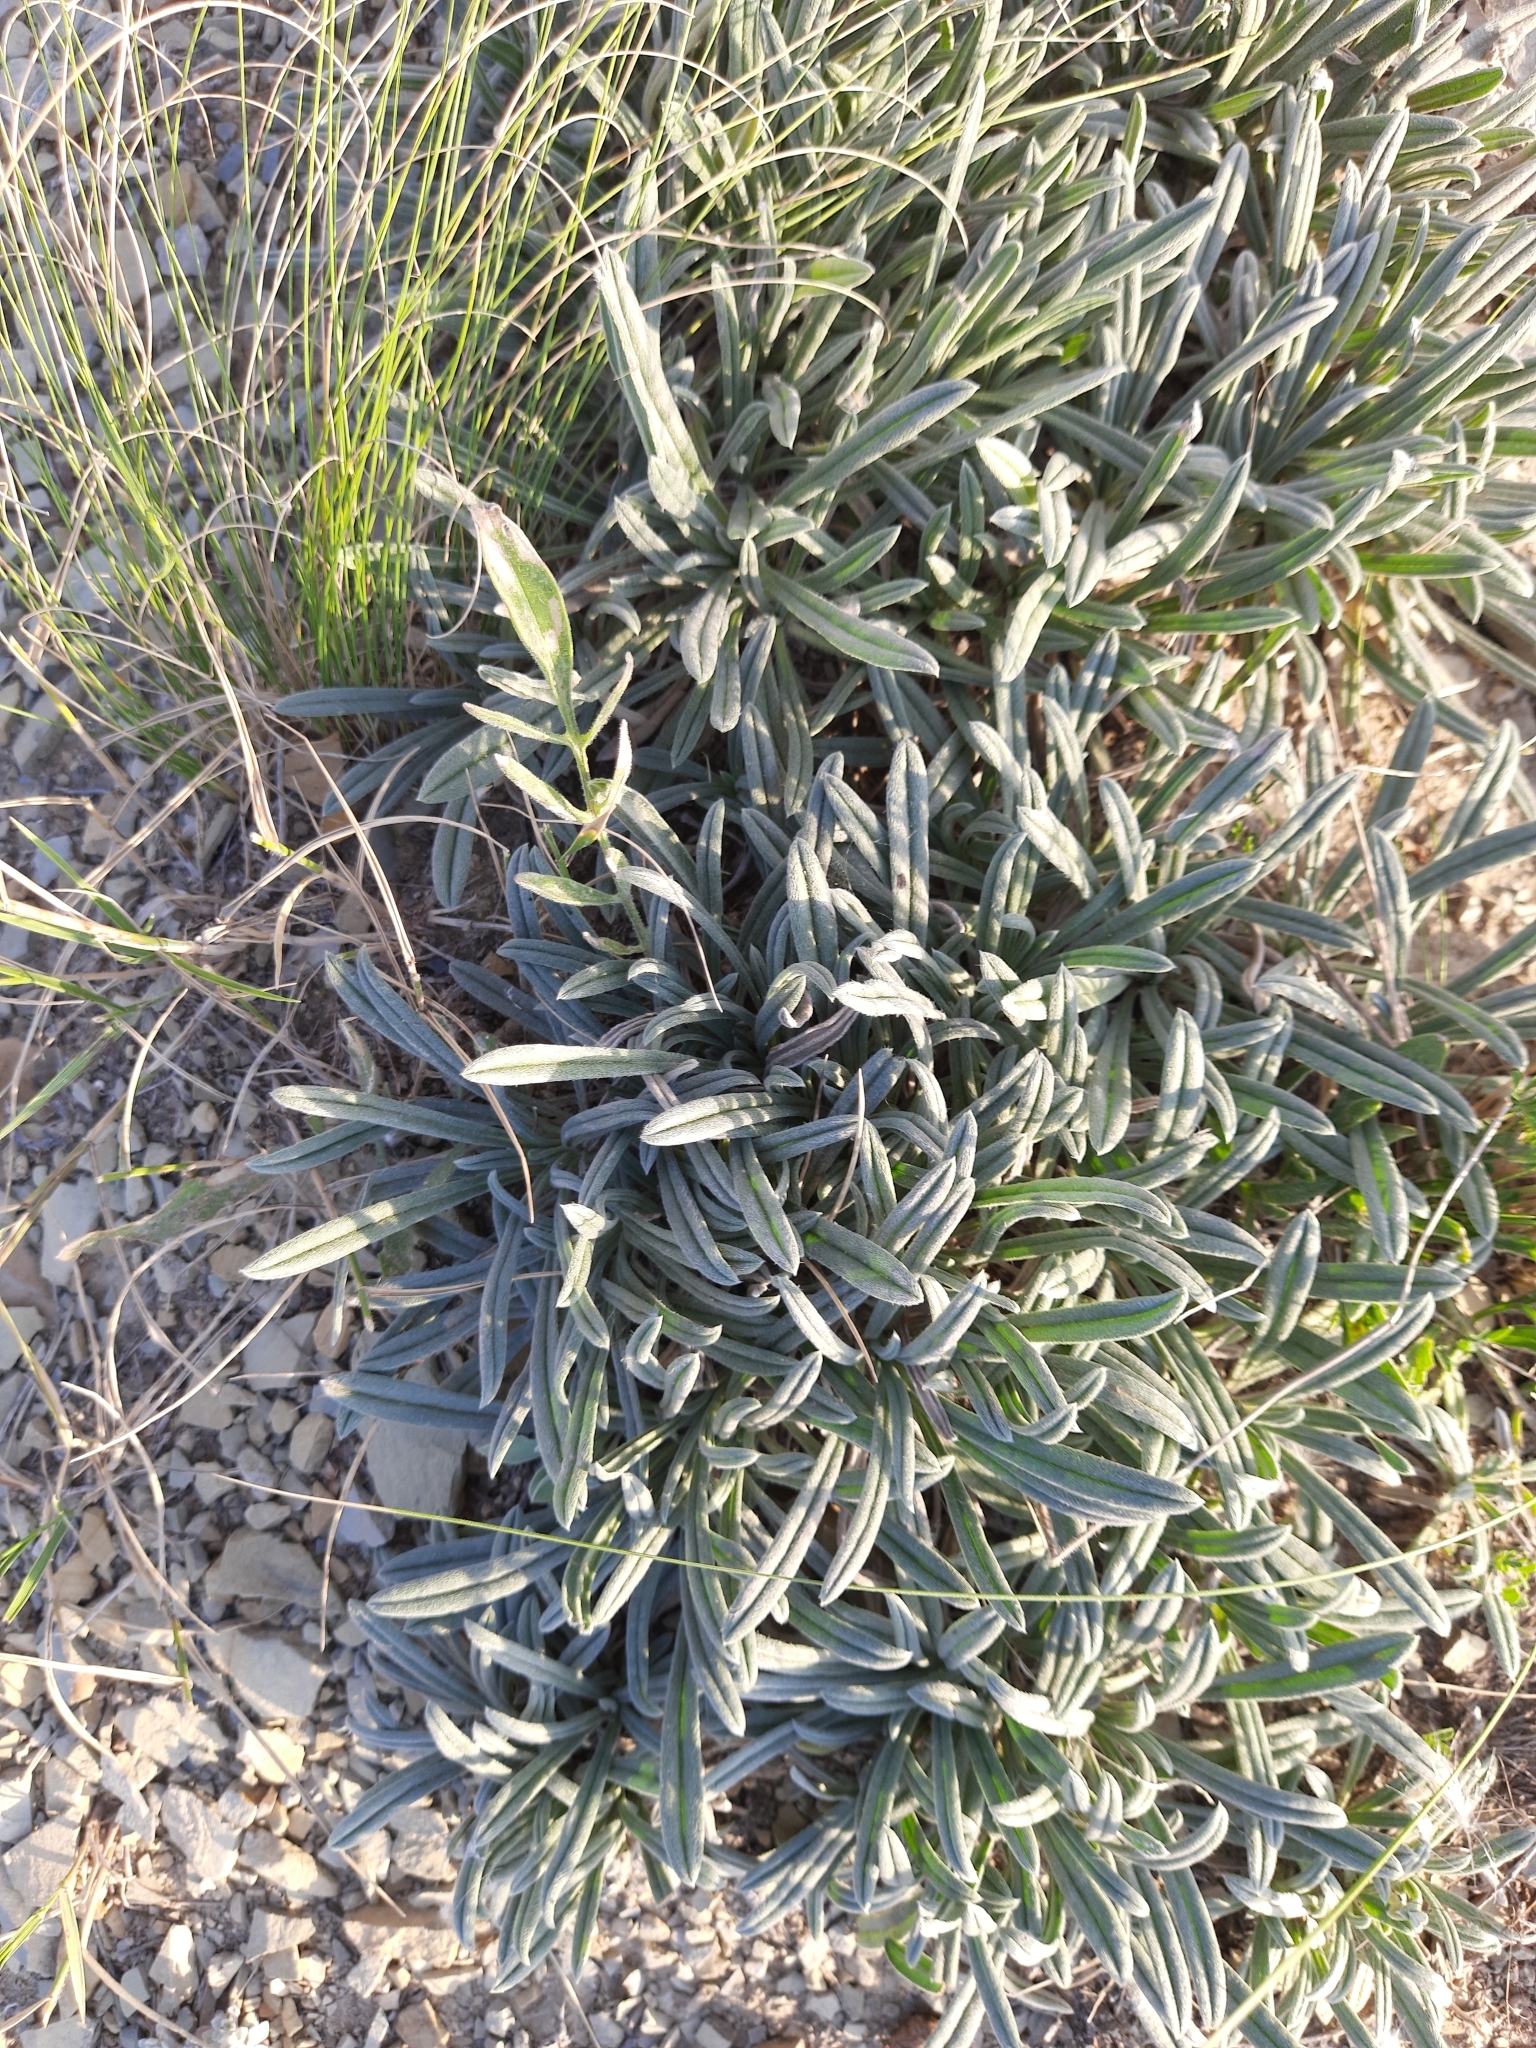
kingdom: Plantae
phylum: Tracheophyta
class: Magnoliopsida
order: Boraginales
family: Boraginaceae
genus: Onosma
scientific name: Onosma taurica
